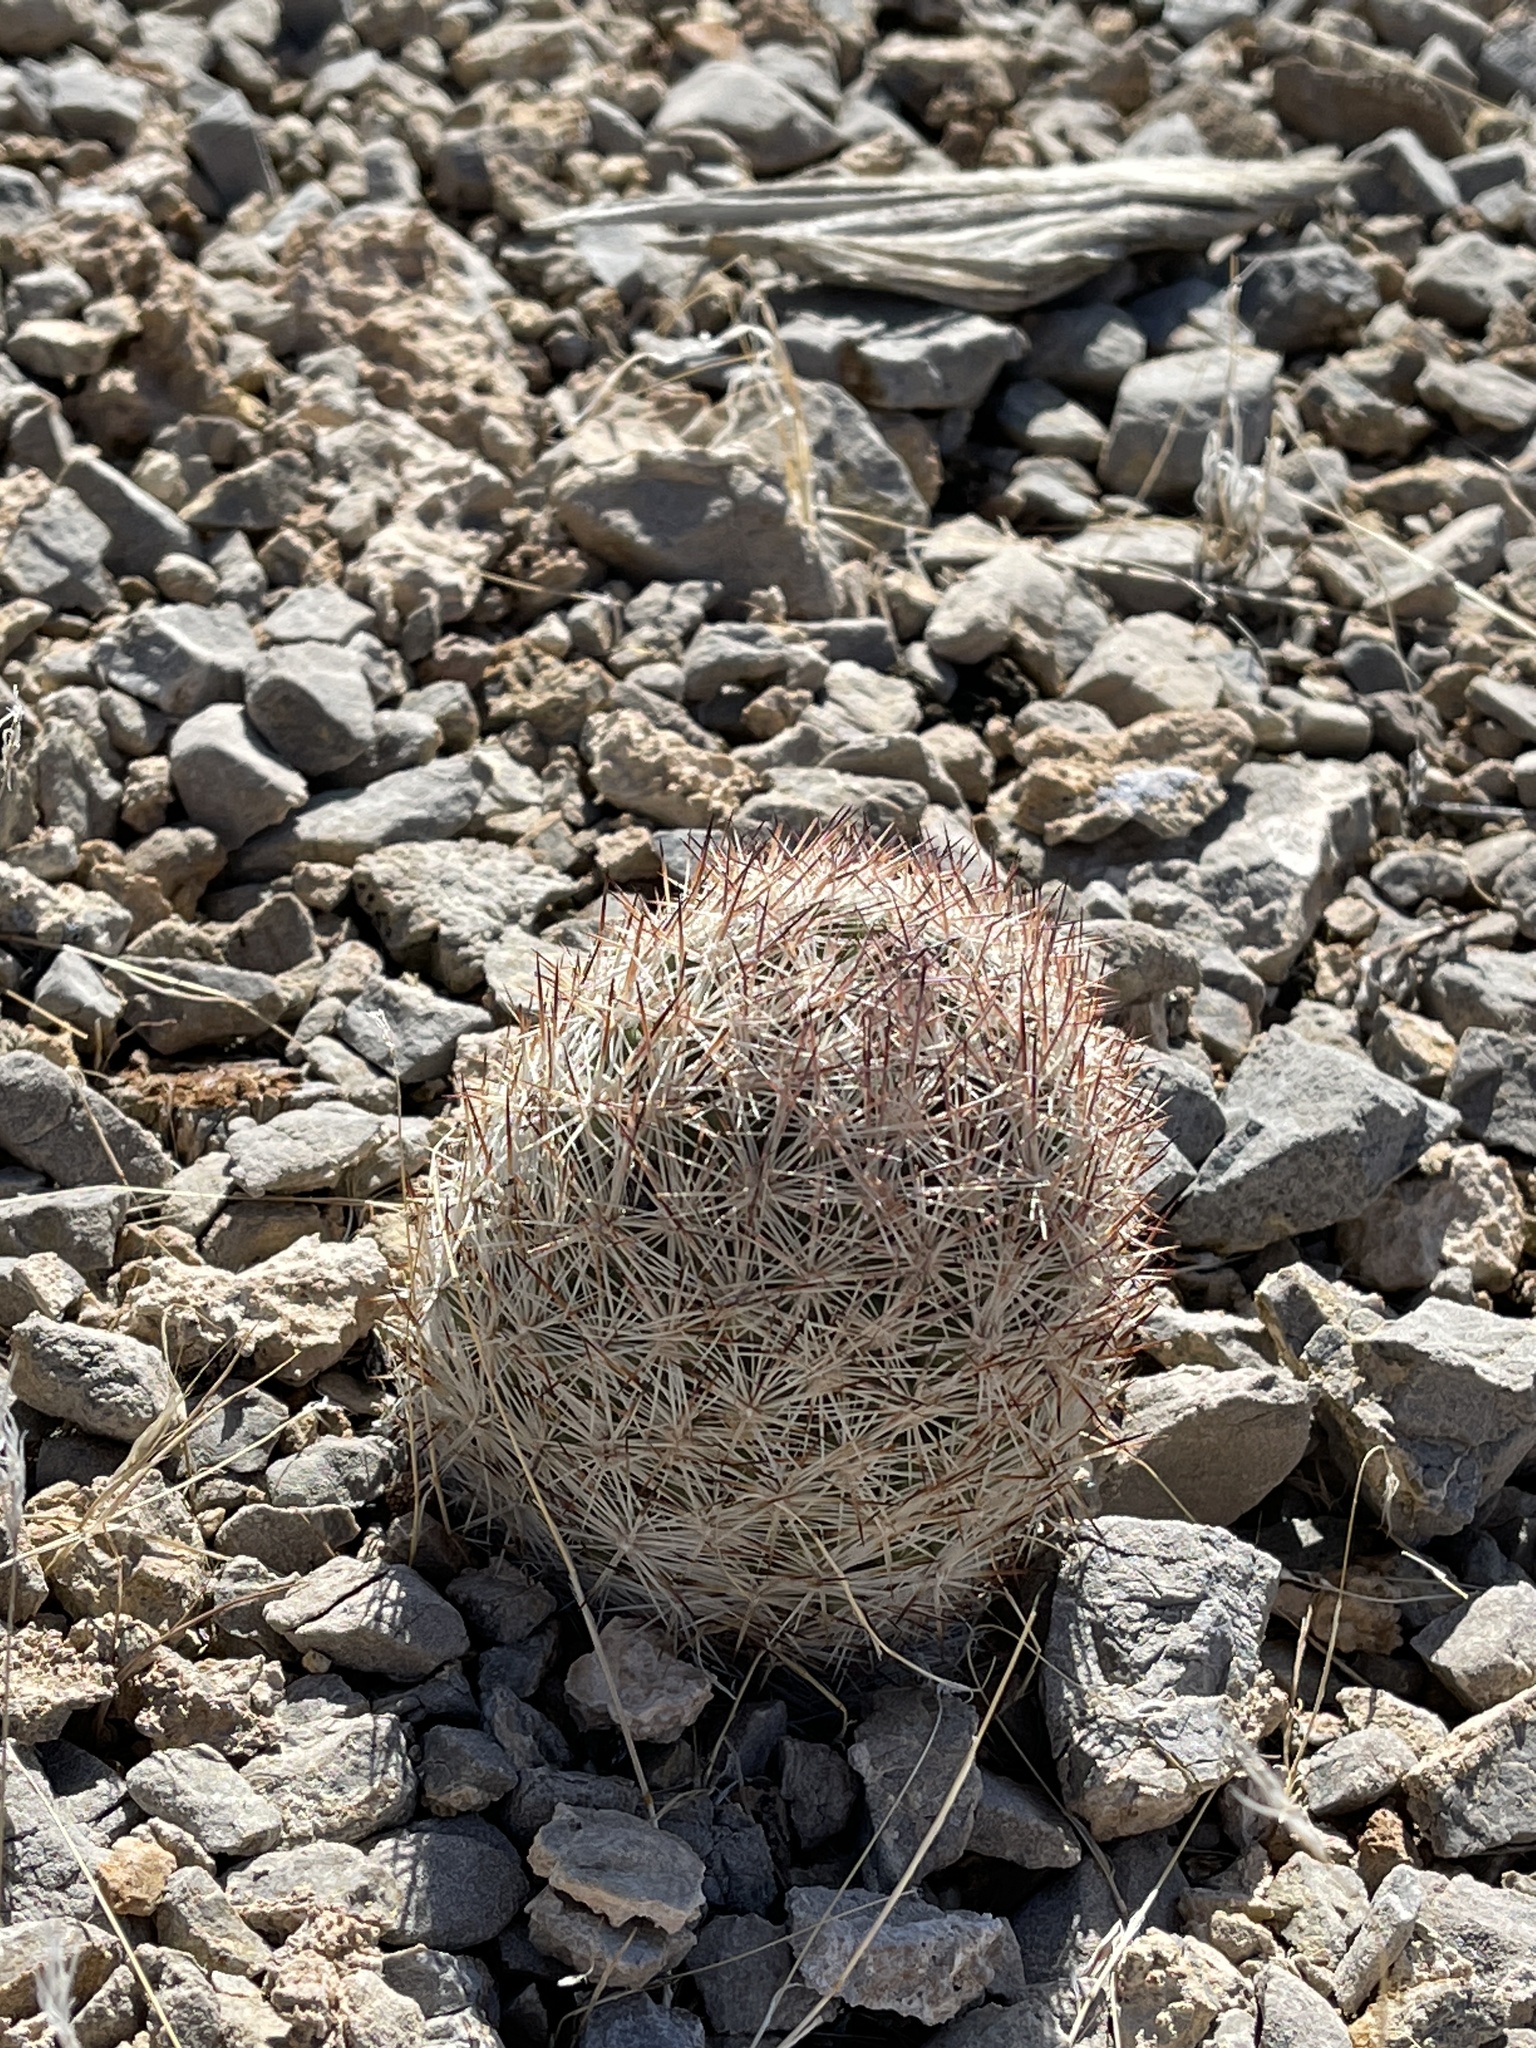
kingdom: Plantae
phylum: Tracheophyta
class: Magnoliopsida
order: Caryophyllales
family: Cactaceae
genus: Pelecyphora
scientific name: Pelecyphora dasyacantha
